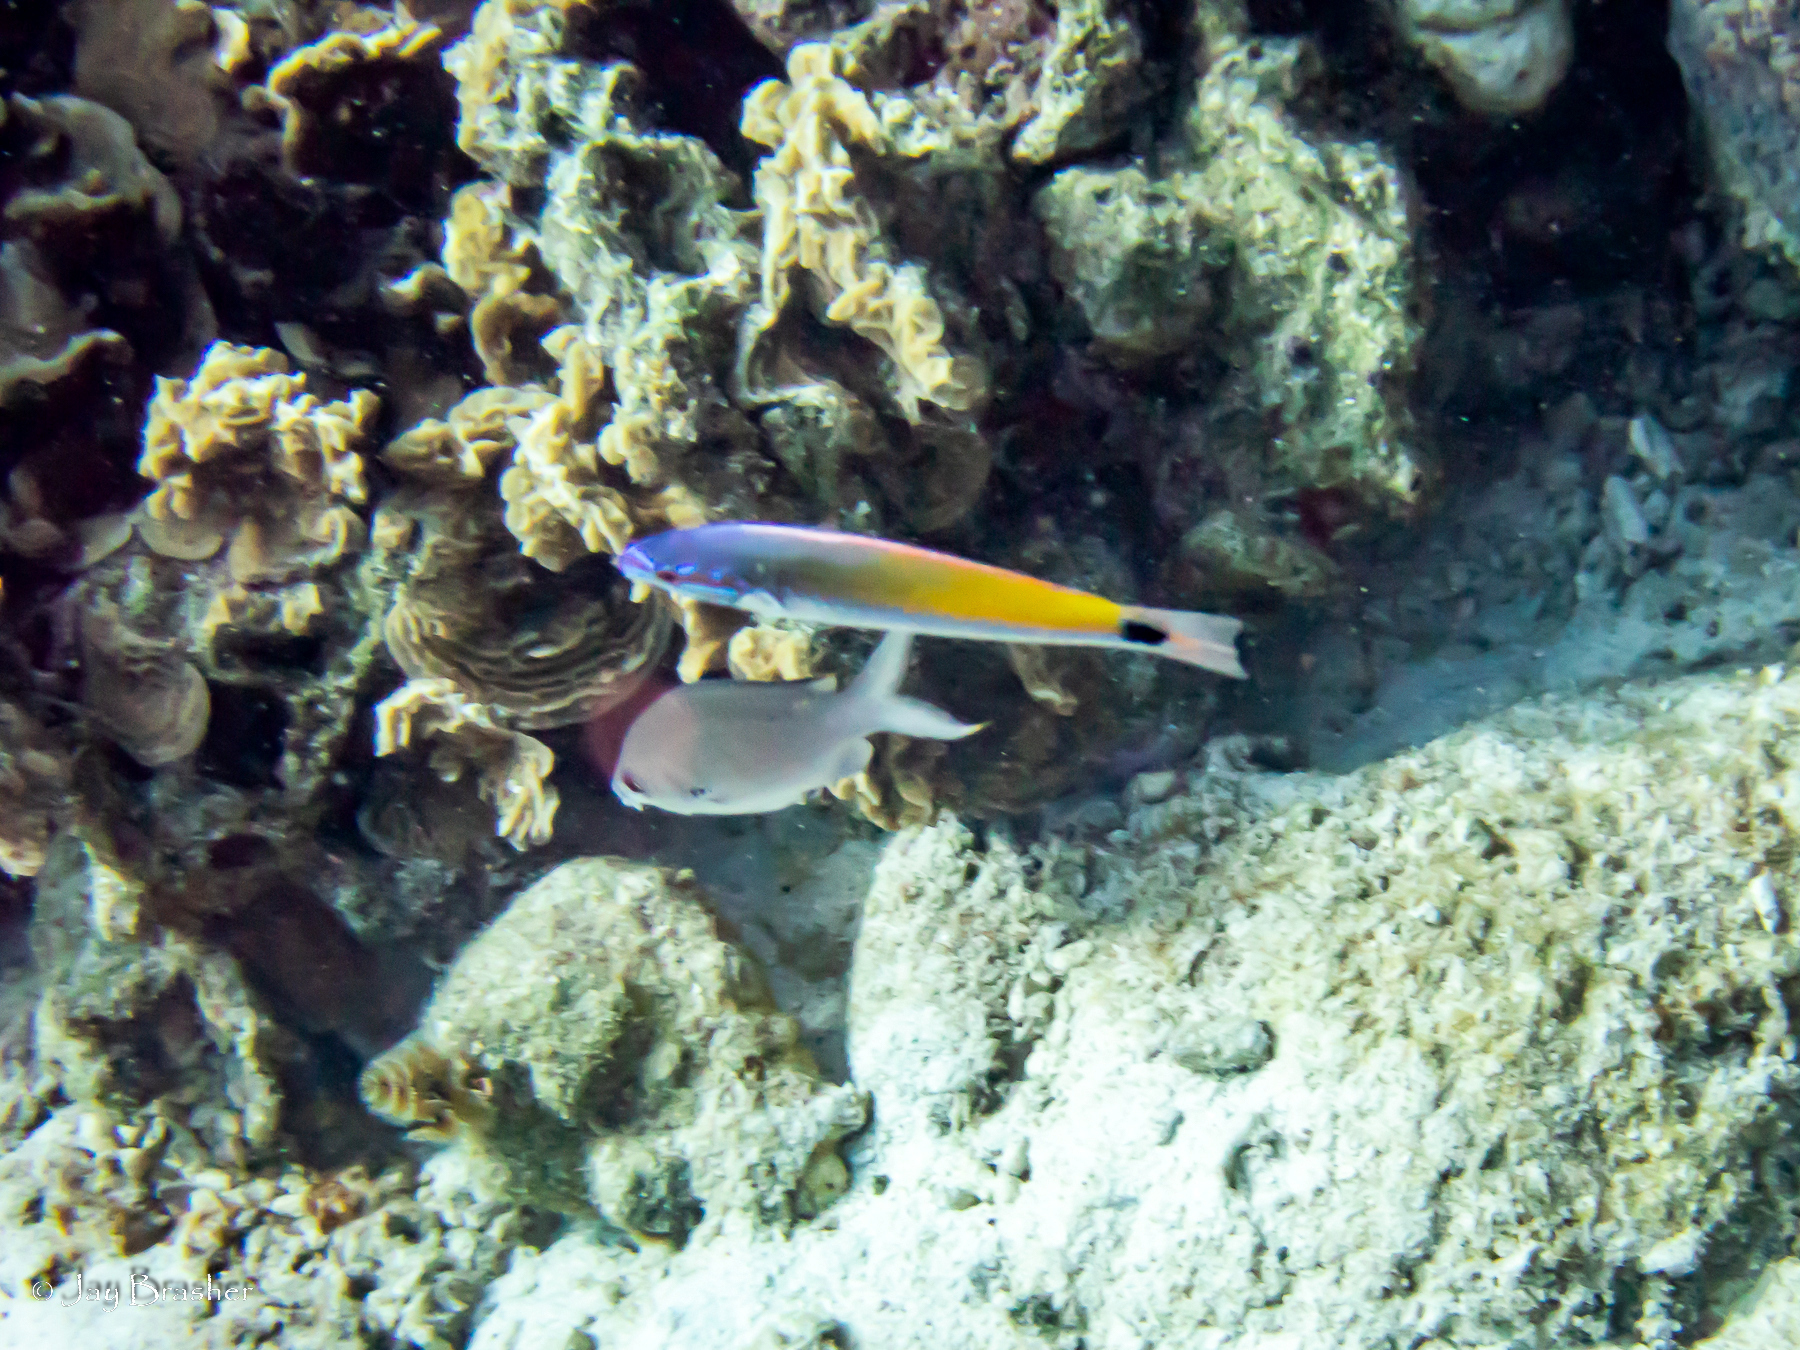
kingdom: Animalia
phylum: Chordata
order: Perciformes
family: Pomacentridae
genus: Chromis
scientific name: Chromis multilineata
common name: Brown chromis
